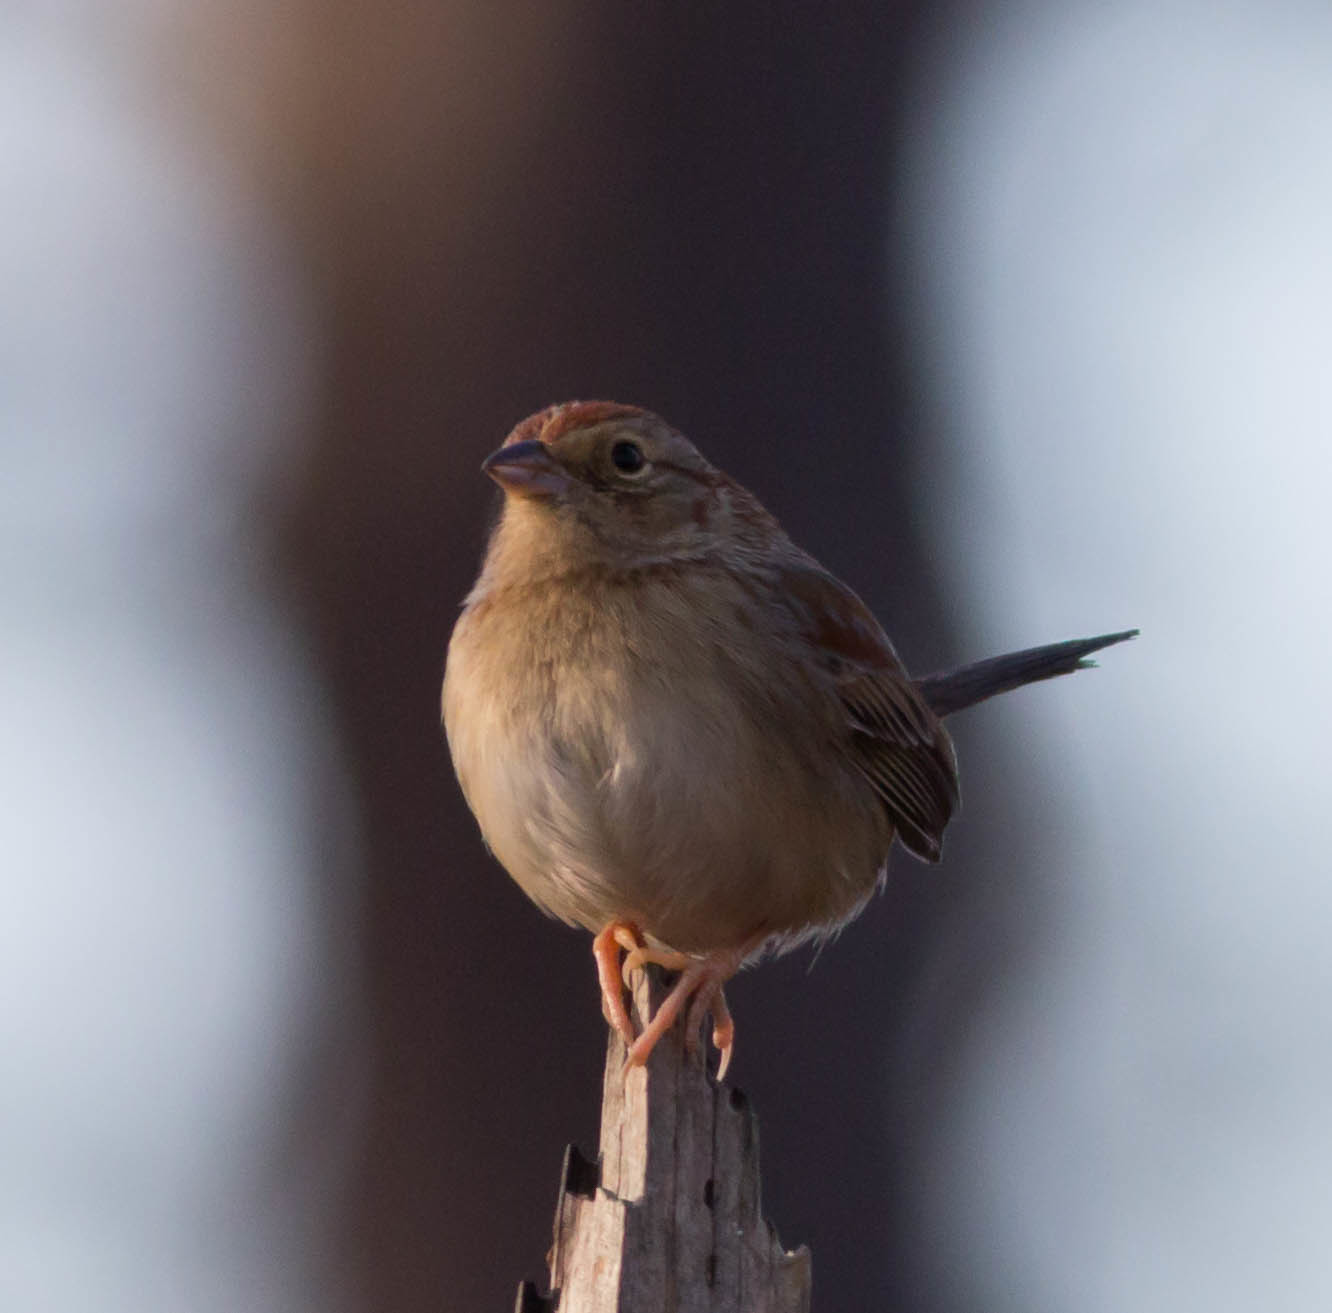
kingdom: Animalia
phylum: Chordata
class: Aves
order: Passeriformes
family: Passerellidae
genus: Peucaea
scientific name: Peucaea aestivalis
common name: Bachman's sparrow
